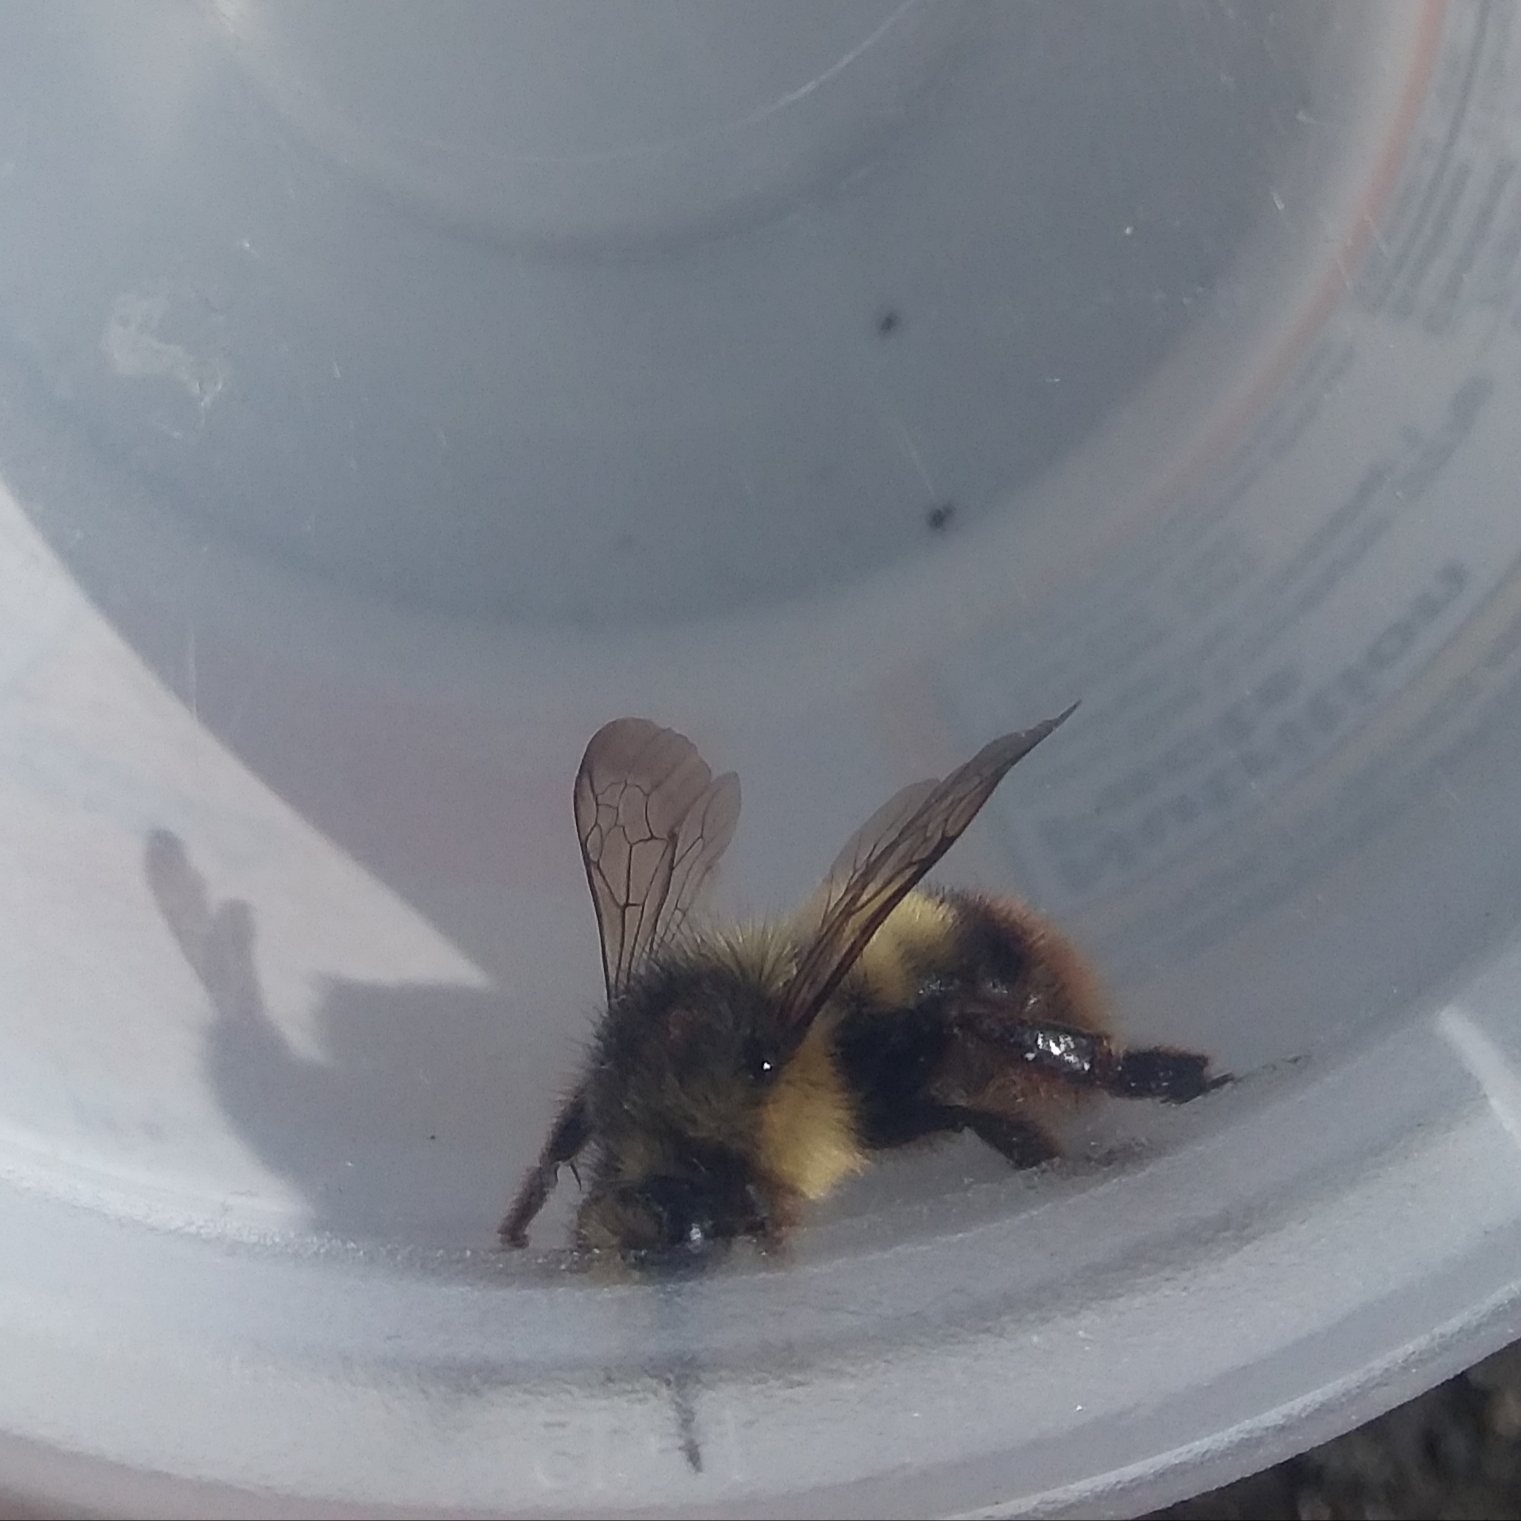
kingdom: Animalia
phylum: Arthropoda
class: Insecta
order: Hymenoptera
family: Apidae
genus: Bombus
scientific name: Bombus mixtus
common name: Fuzzy-horned bumble bee
